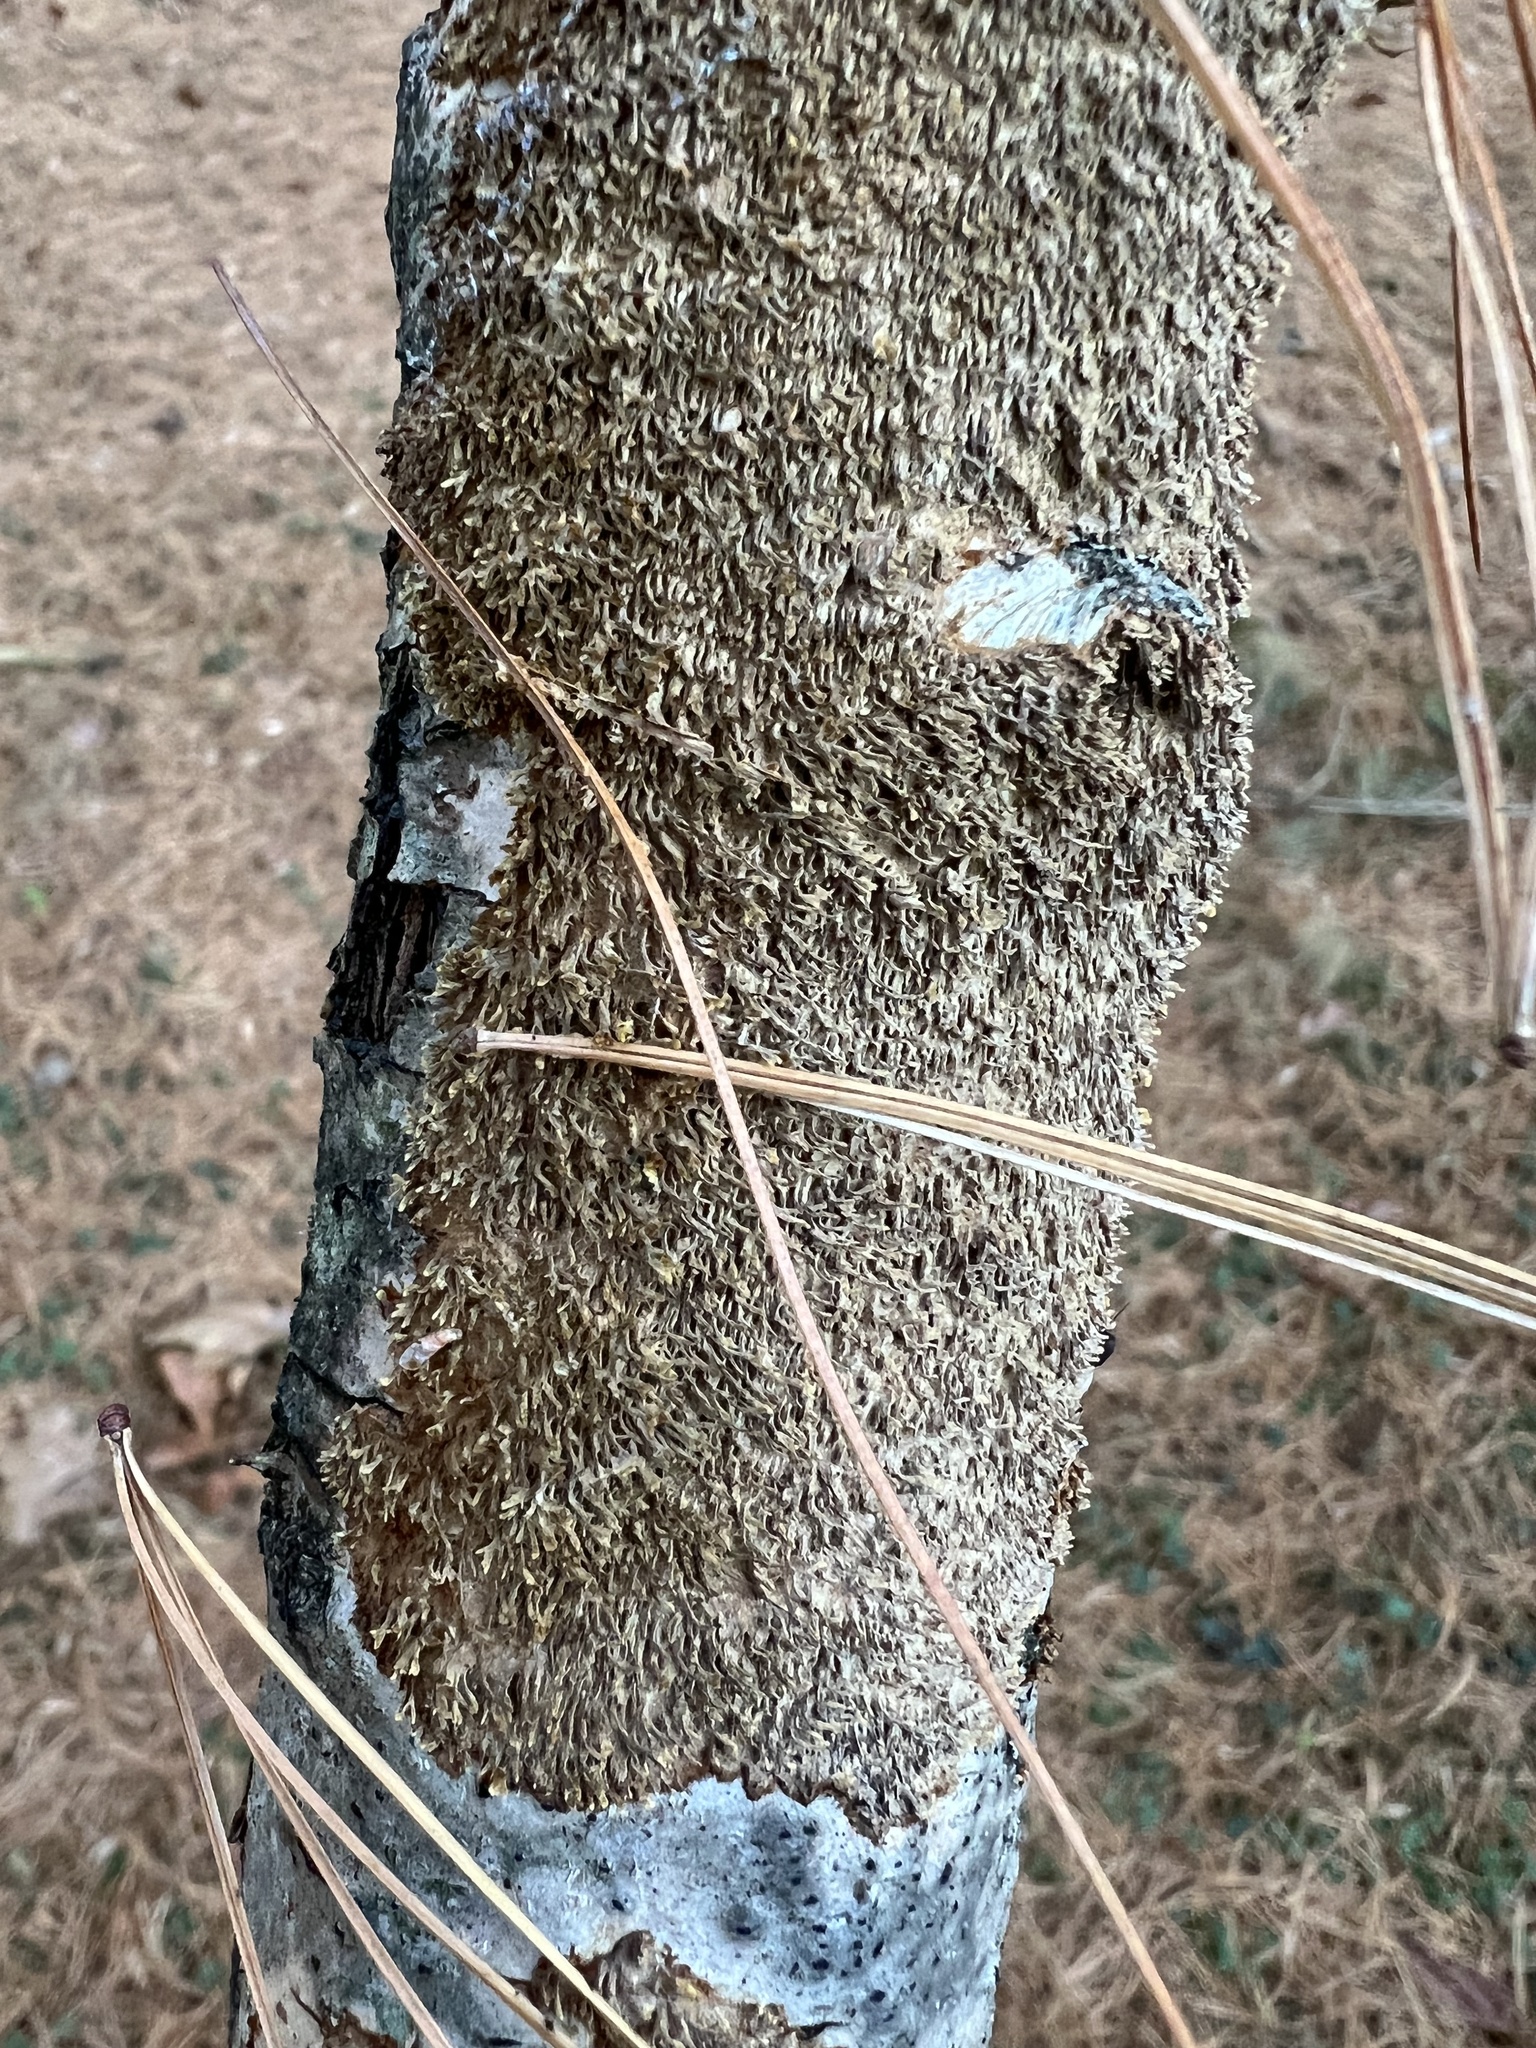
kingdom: Fungi
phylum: Basidiomycota
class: Agaricomycetes
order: Hymenochaetales
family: Hymenochaetaceae
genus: Hydnoporia
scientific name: Hydnoporia olivacea
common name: Brown-toothed crust fungus
